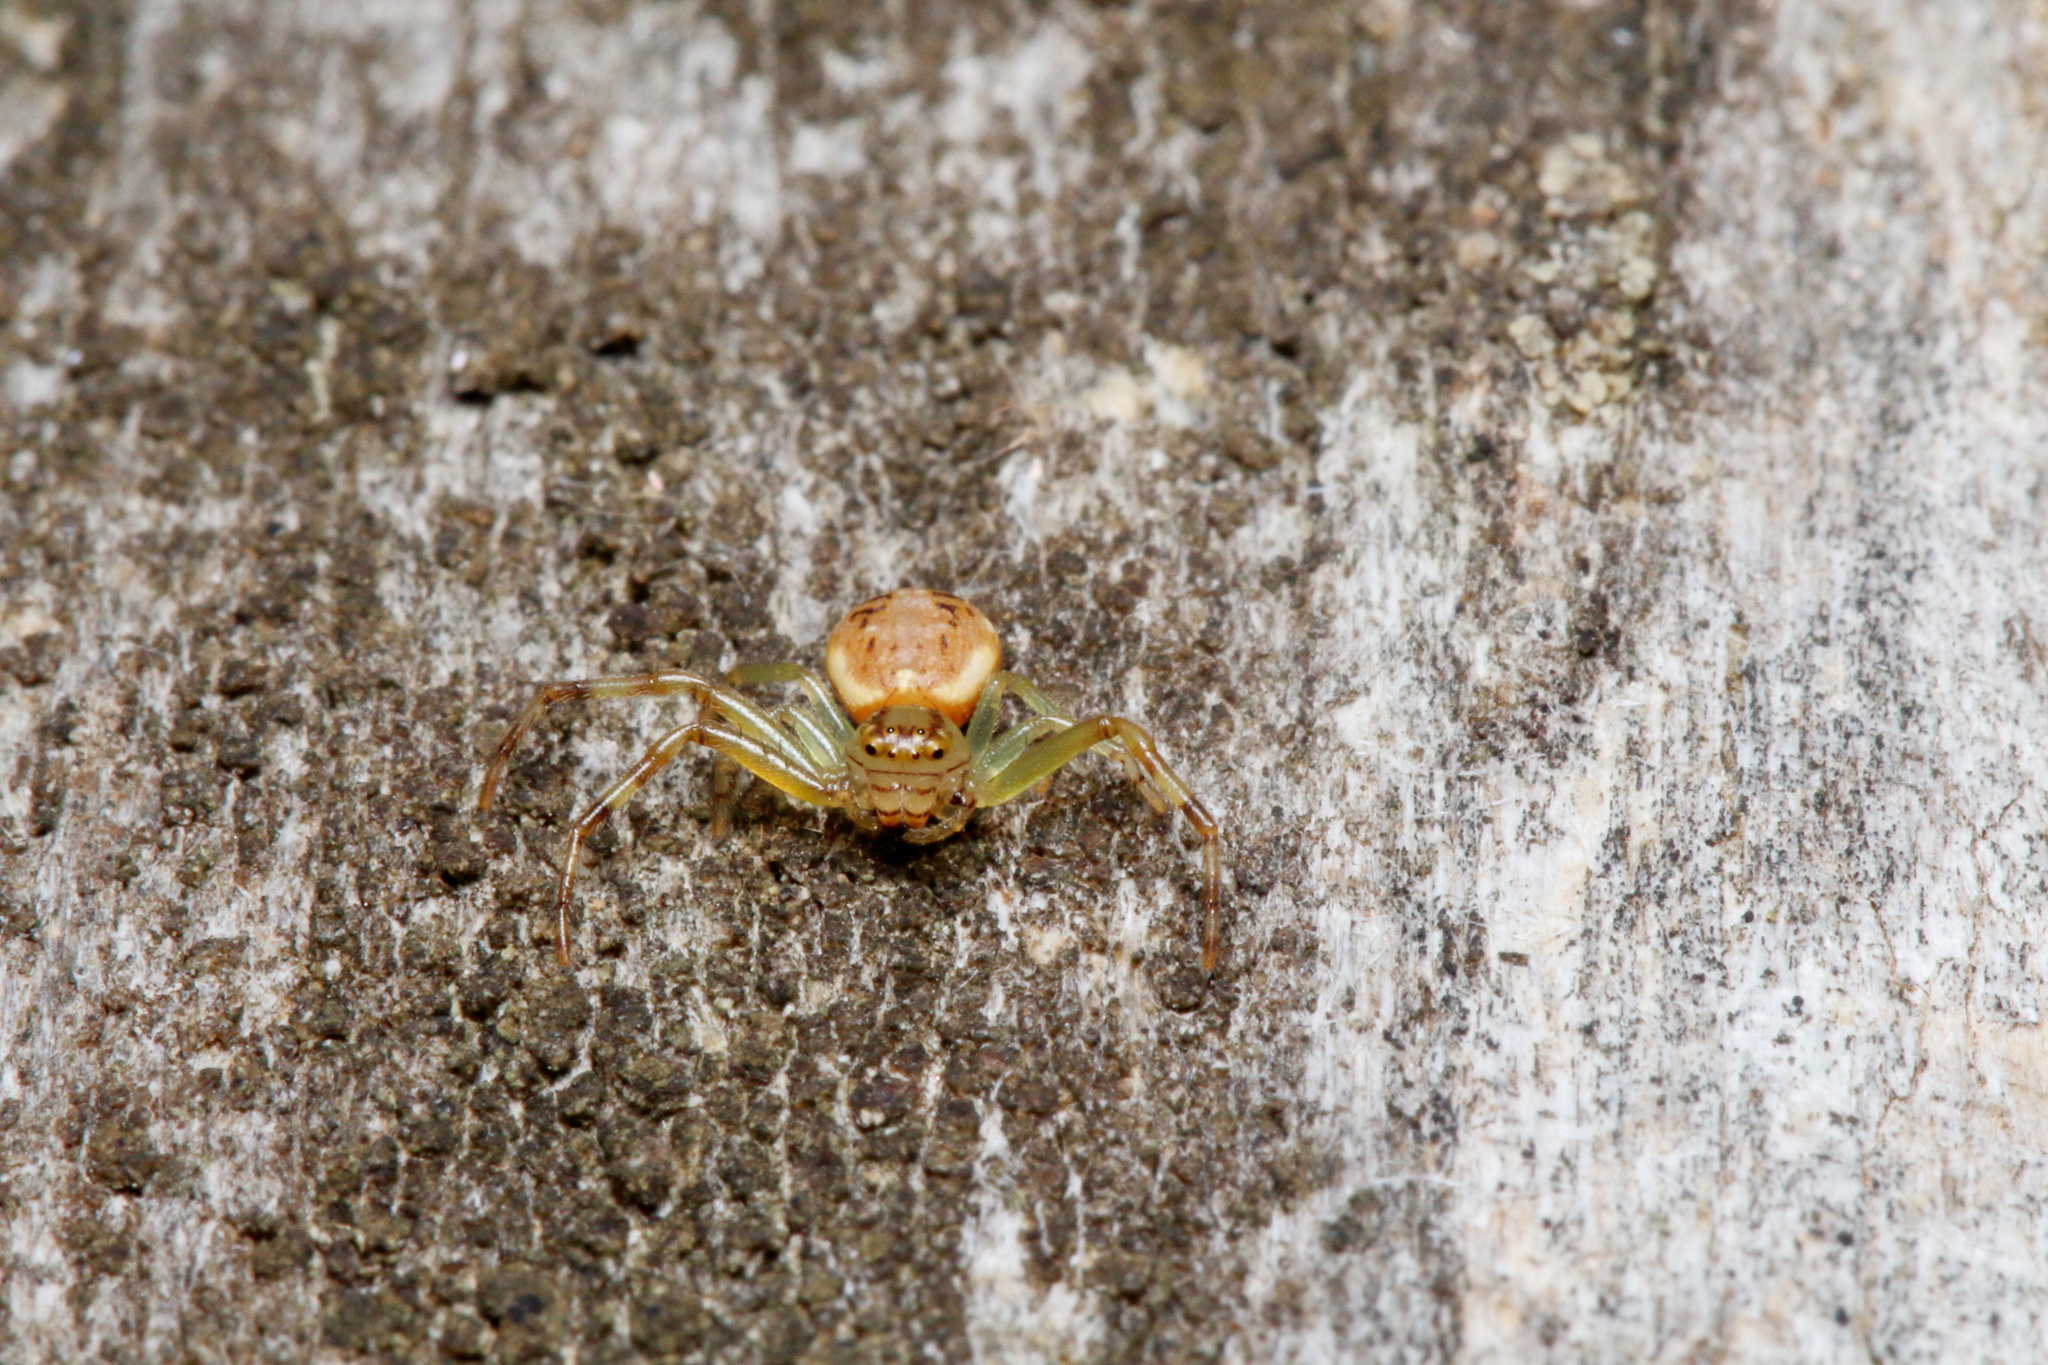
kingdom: Animalia
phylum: Arthropoda
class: Arachnida
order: Araneae
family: Thomisidae
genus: Diaea
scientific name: Diaea ambara
